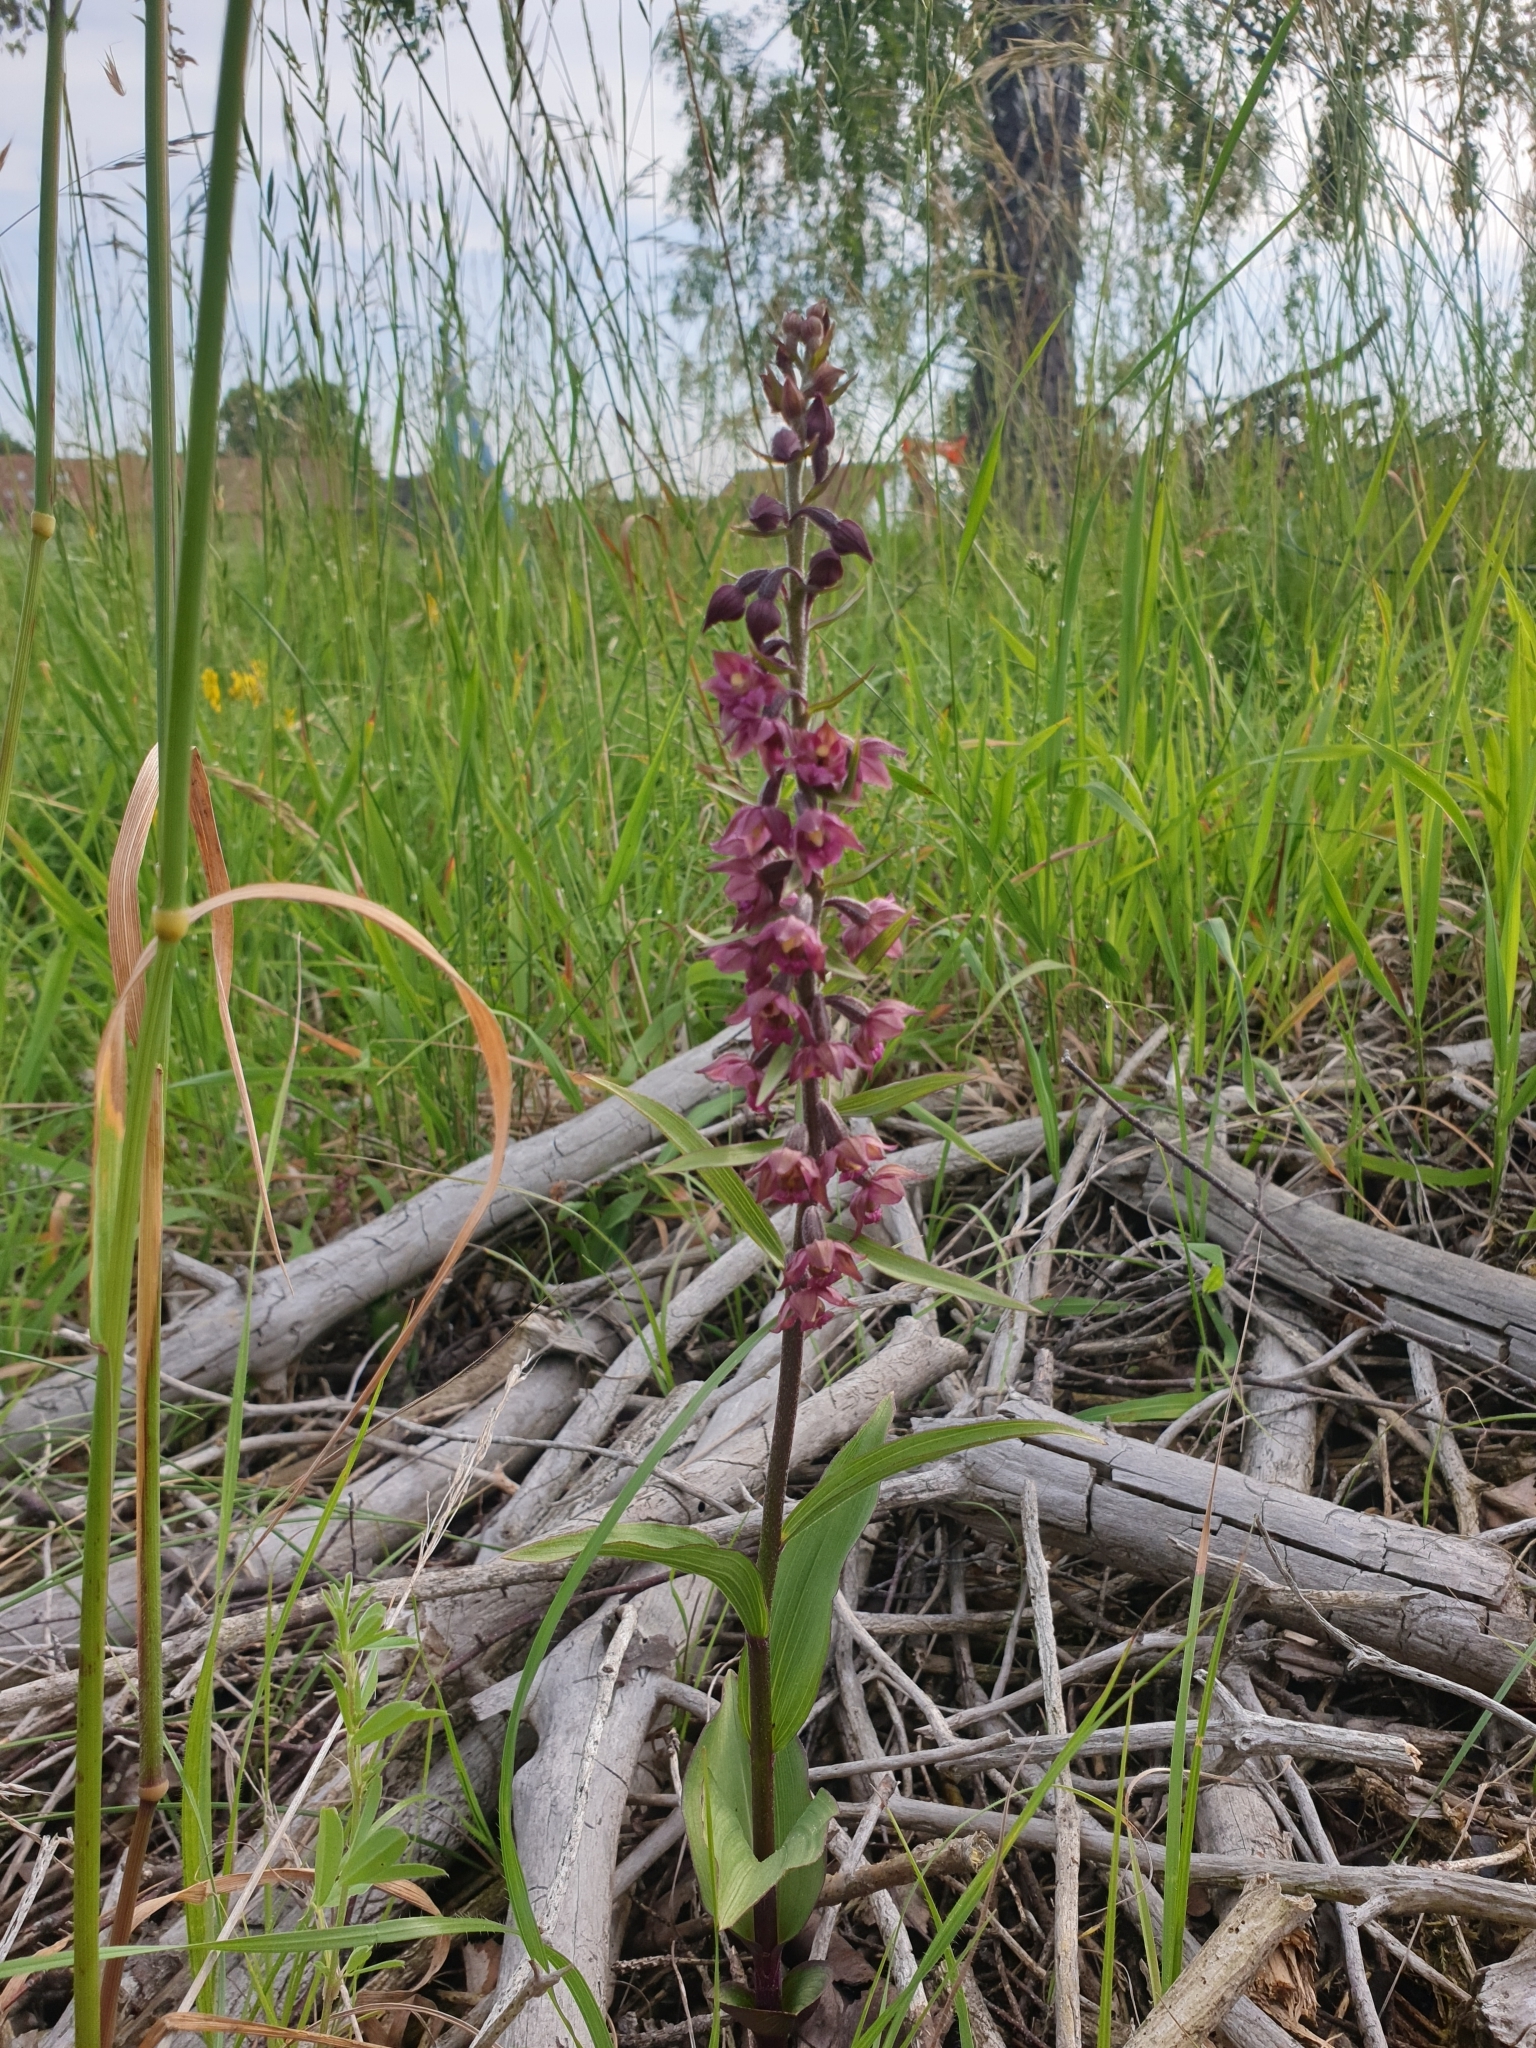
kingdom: Plantae
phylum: Tracheophyta
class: Liliopsida
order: Asparagales
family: Orchidaceae
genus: Epipactis
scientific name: Epipactis atrorubens
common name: Dark-red helleborine
